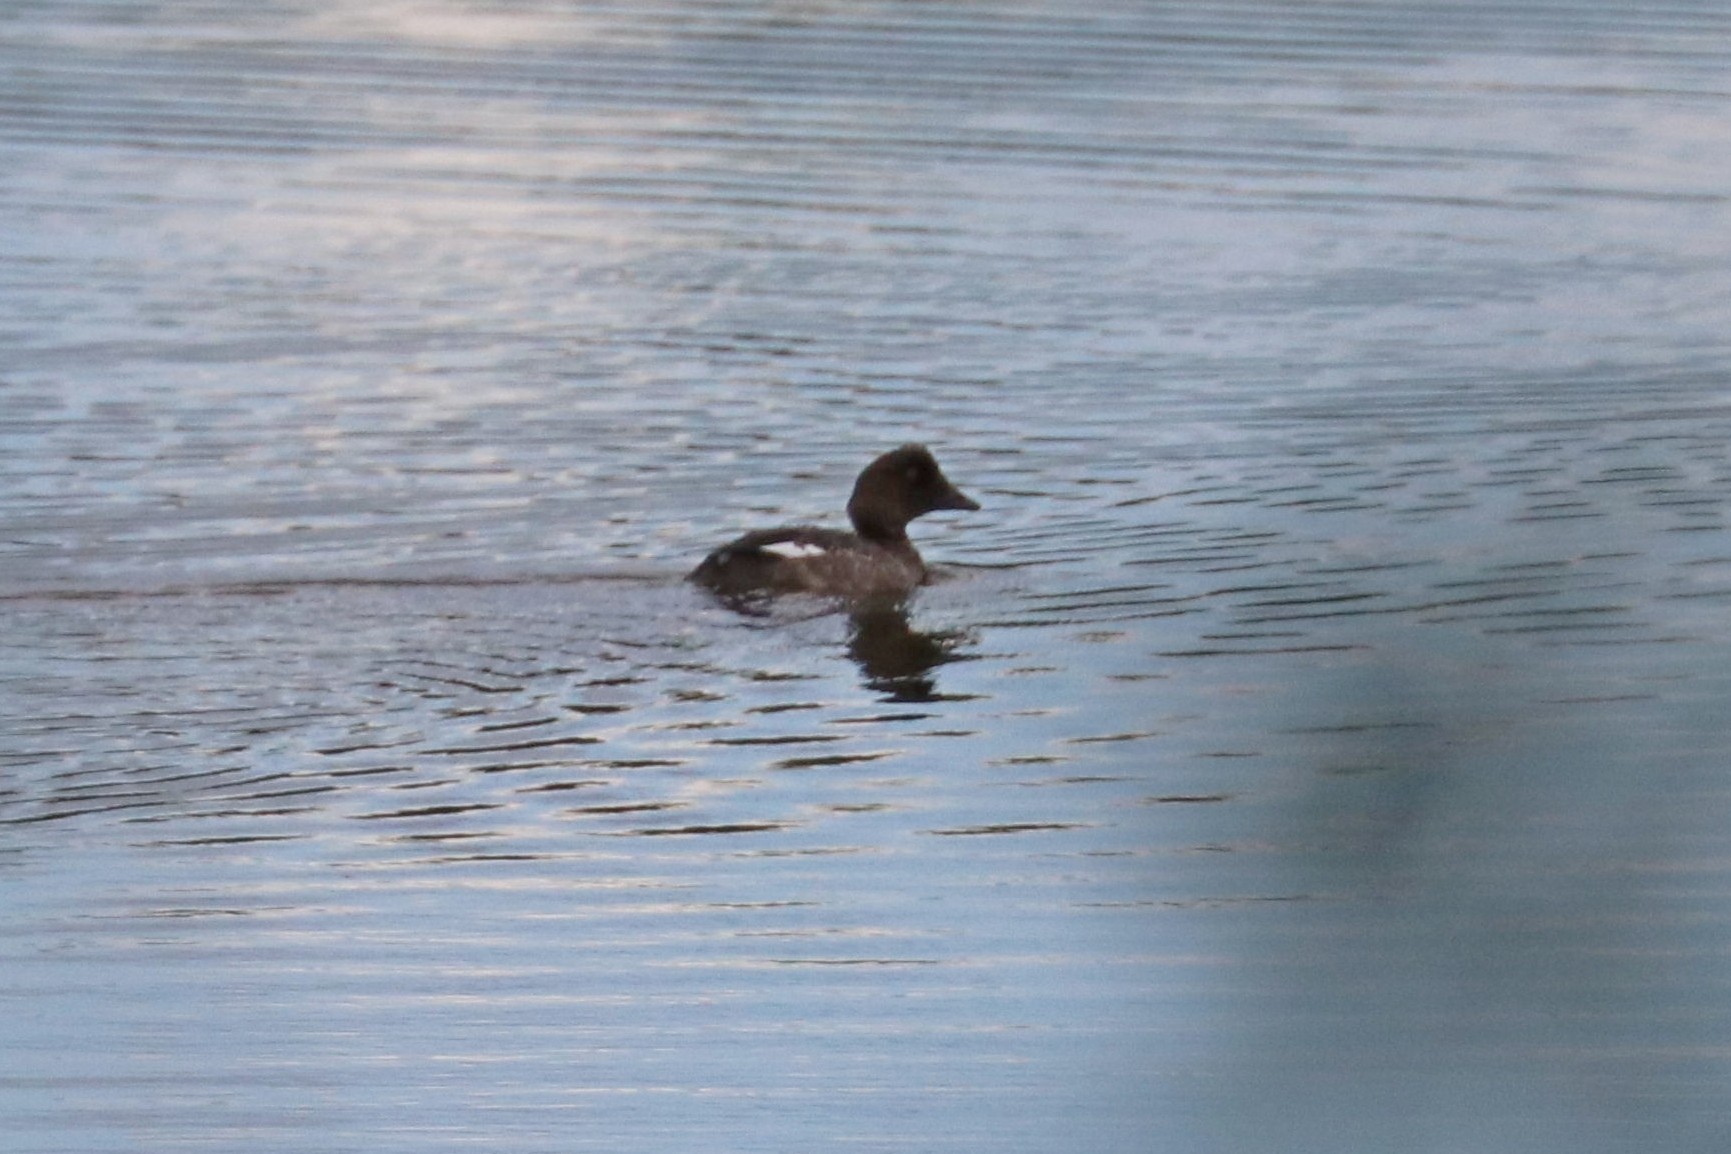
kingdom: Animalia
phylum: Chordata
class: Aves
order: Anseriformes
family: Anatidae
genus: Bucephala
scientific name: Bucephala clangula
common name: Common goldeneye
